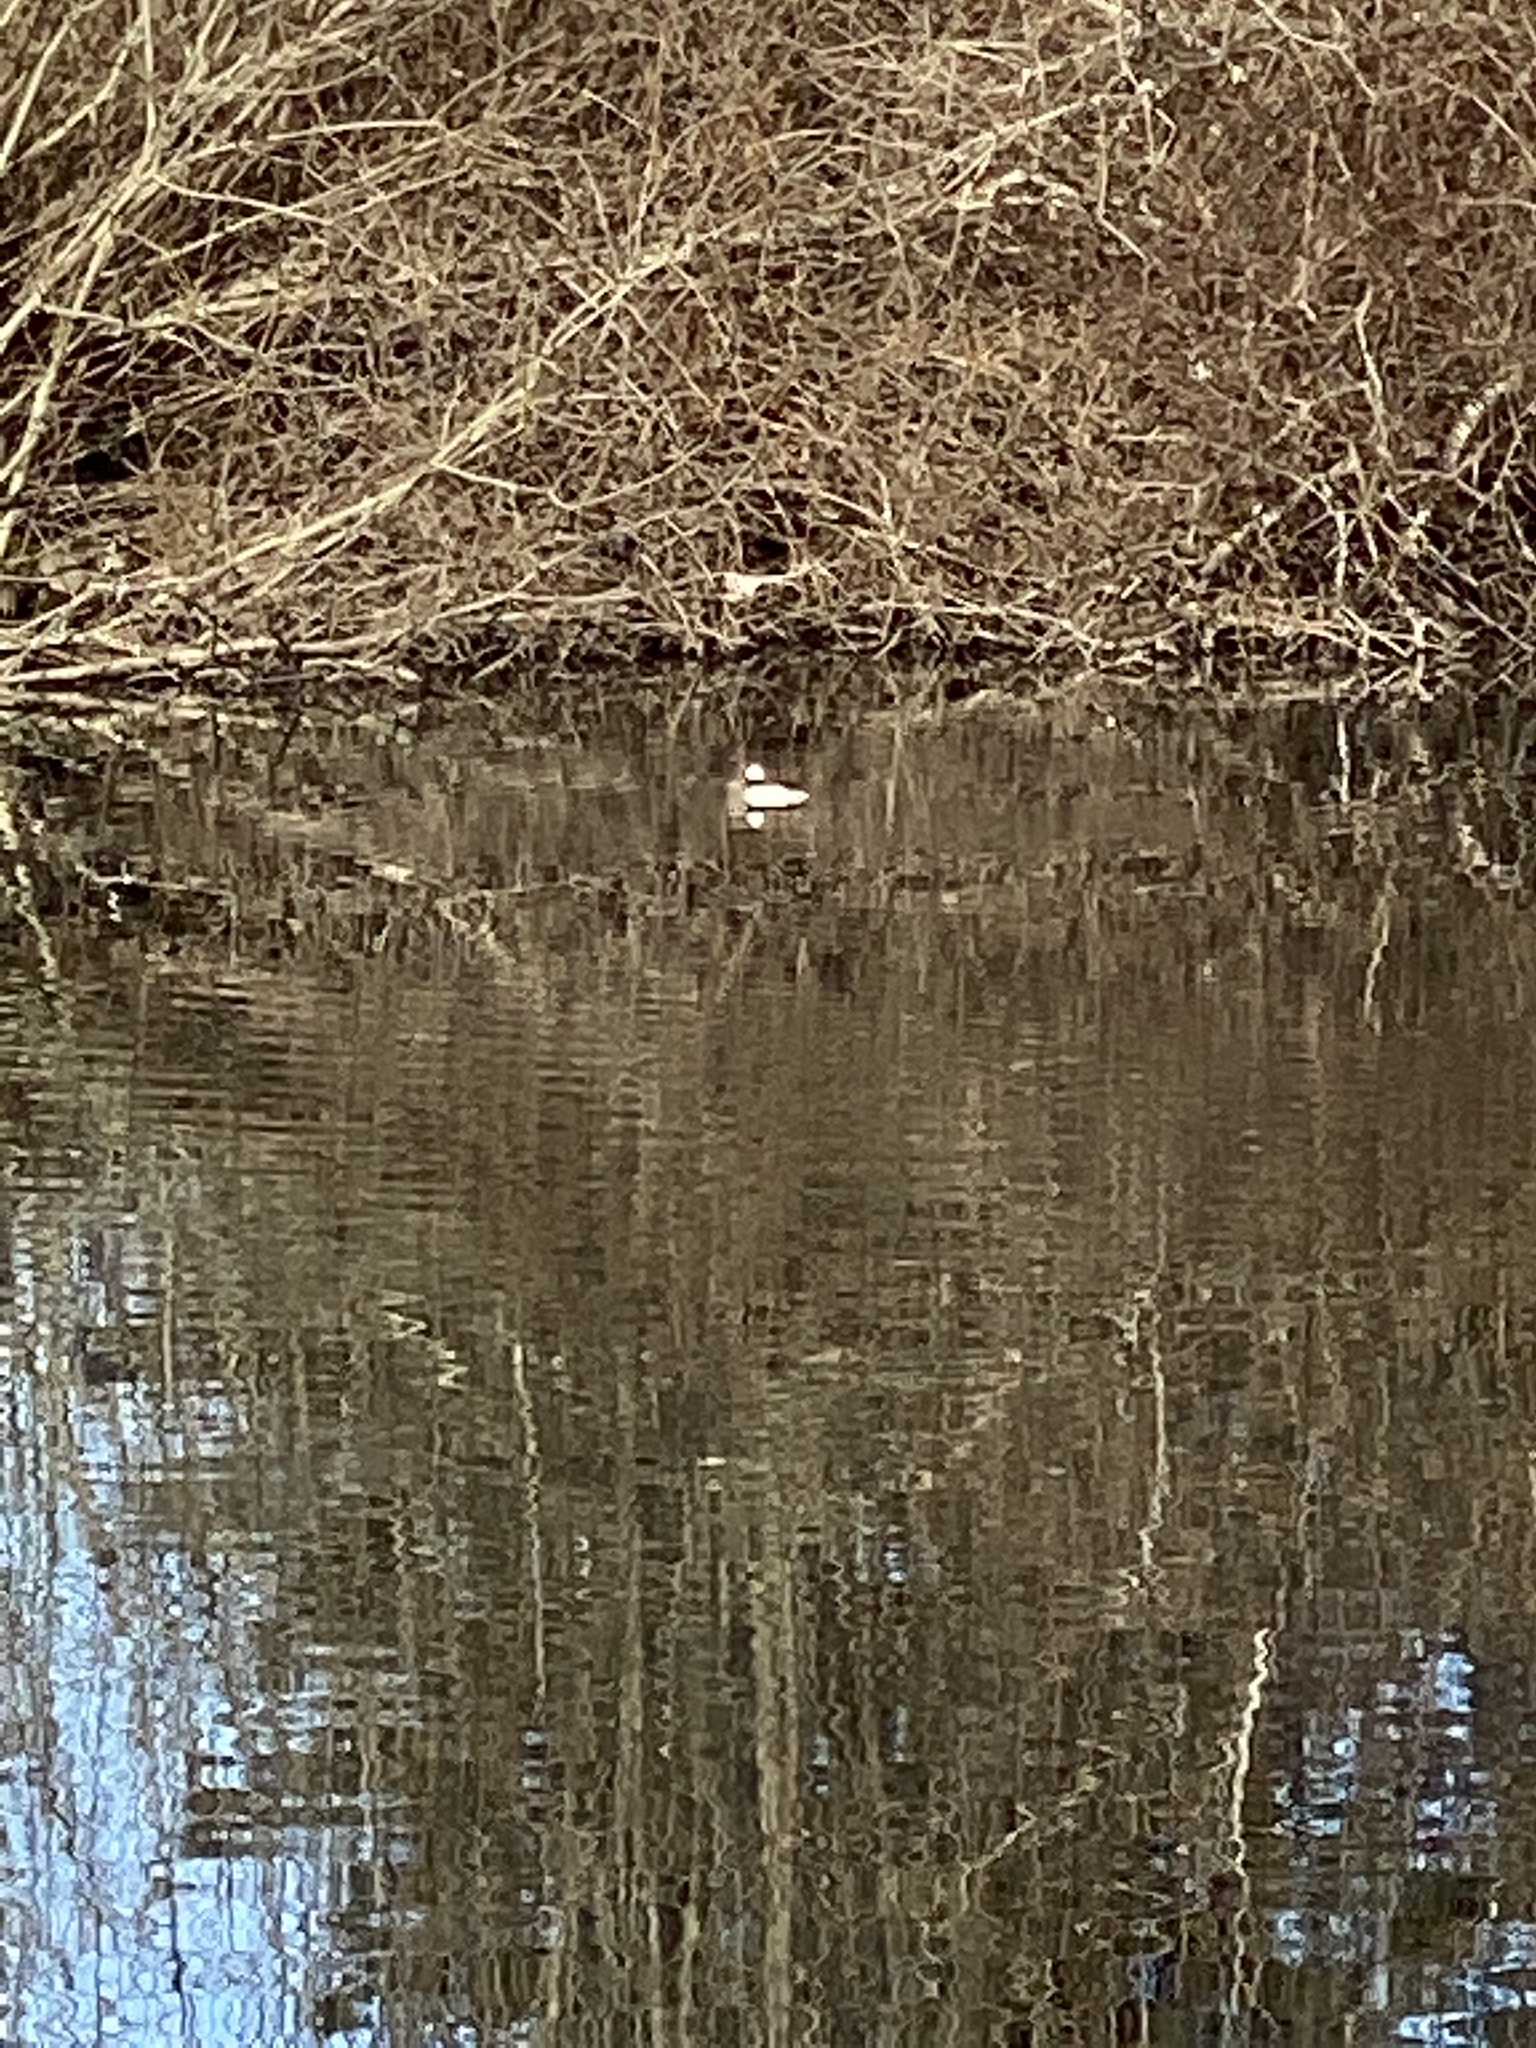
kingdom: Animalia
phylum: Chordata
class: Aves
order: Anseriformes
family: Anatidae
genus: Bucephala
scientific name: Bucephala albeola
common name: Bufflehead
